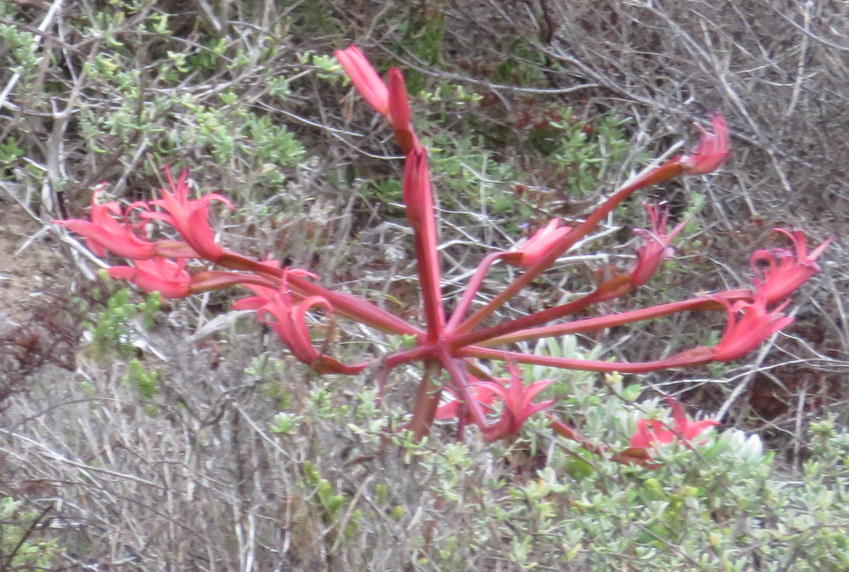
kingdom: Plantae
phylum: Tracheophyta
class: Liliopsida
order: Asparagales
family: Amaryllidaceae
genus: Brunsvigia
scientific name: Brunsvigia orientalis
